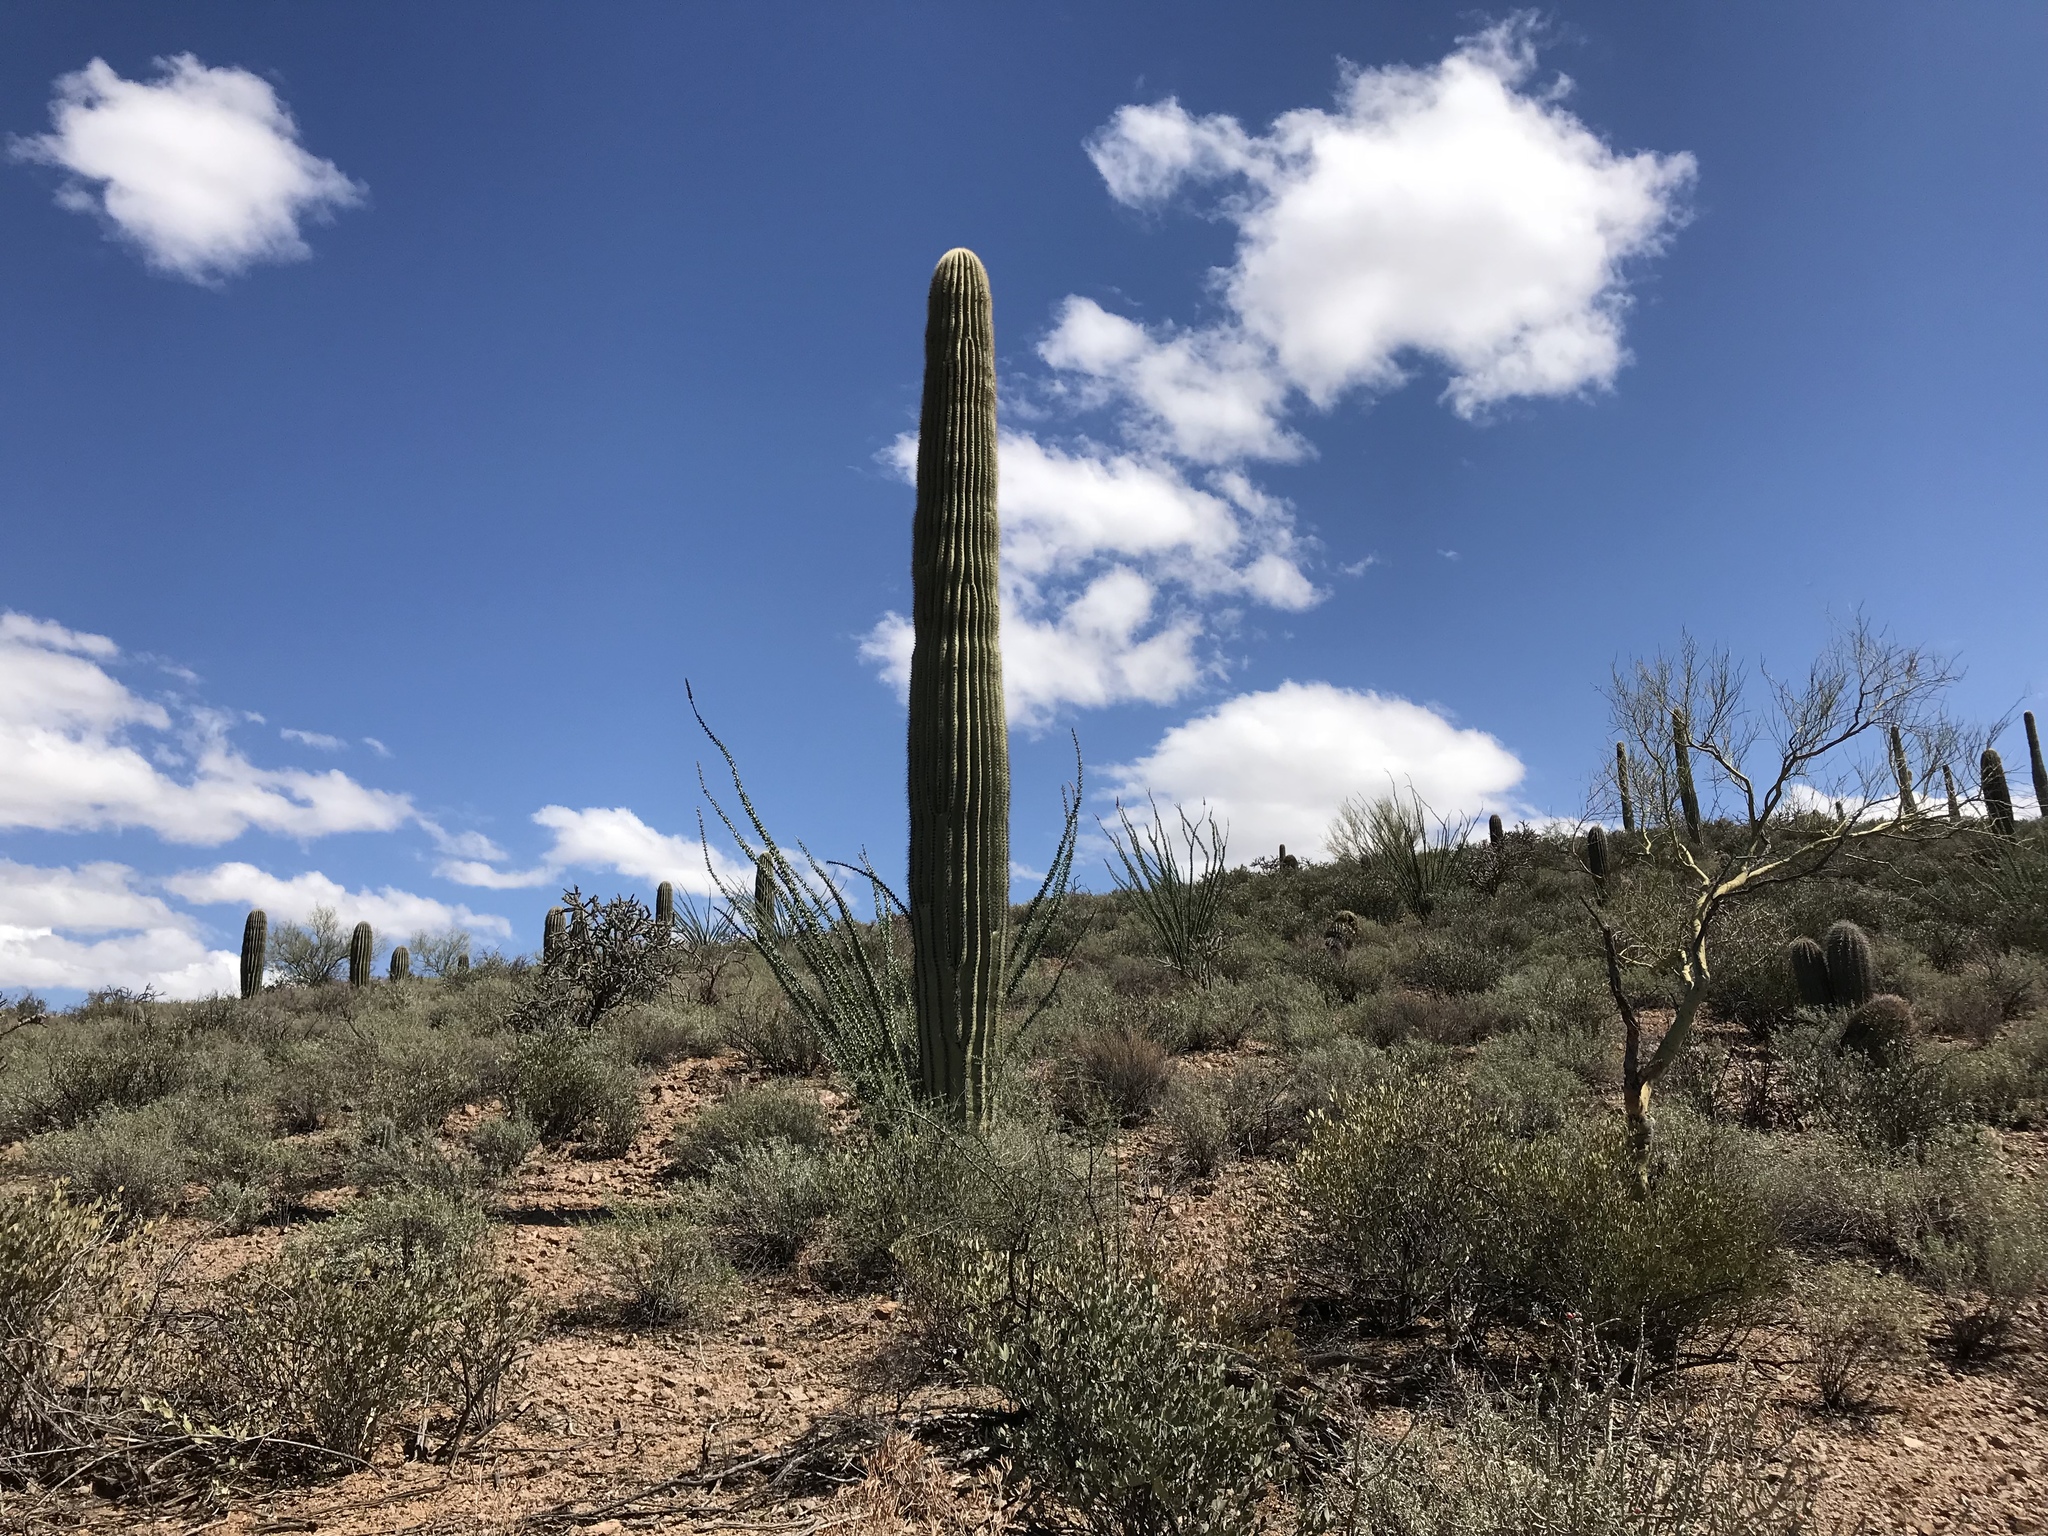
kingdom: Plantae
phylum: Tracheophyta
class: Magnoliopsida
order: Caryophyllales
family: Cactaceae
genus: Carnegiea
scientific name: Carnegiea gigantea
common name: Saguaro
